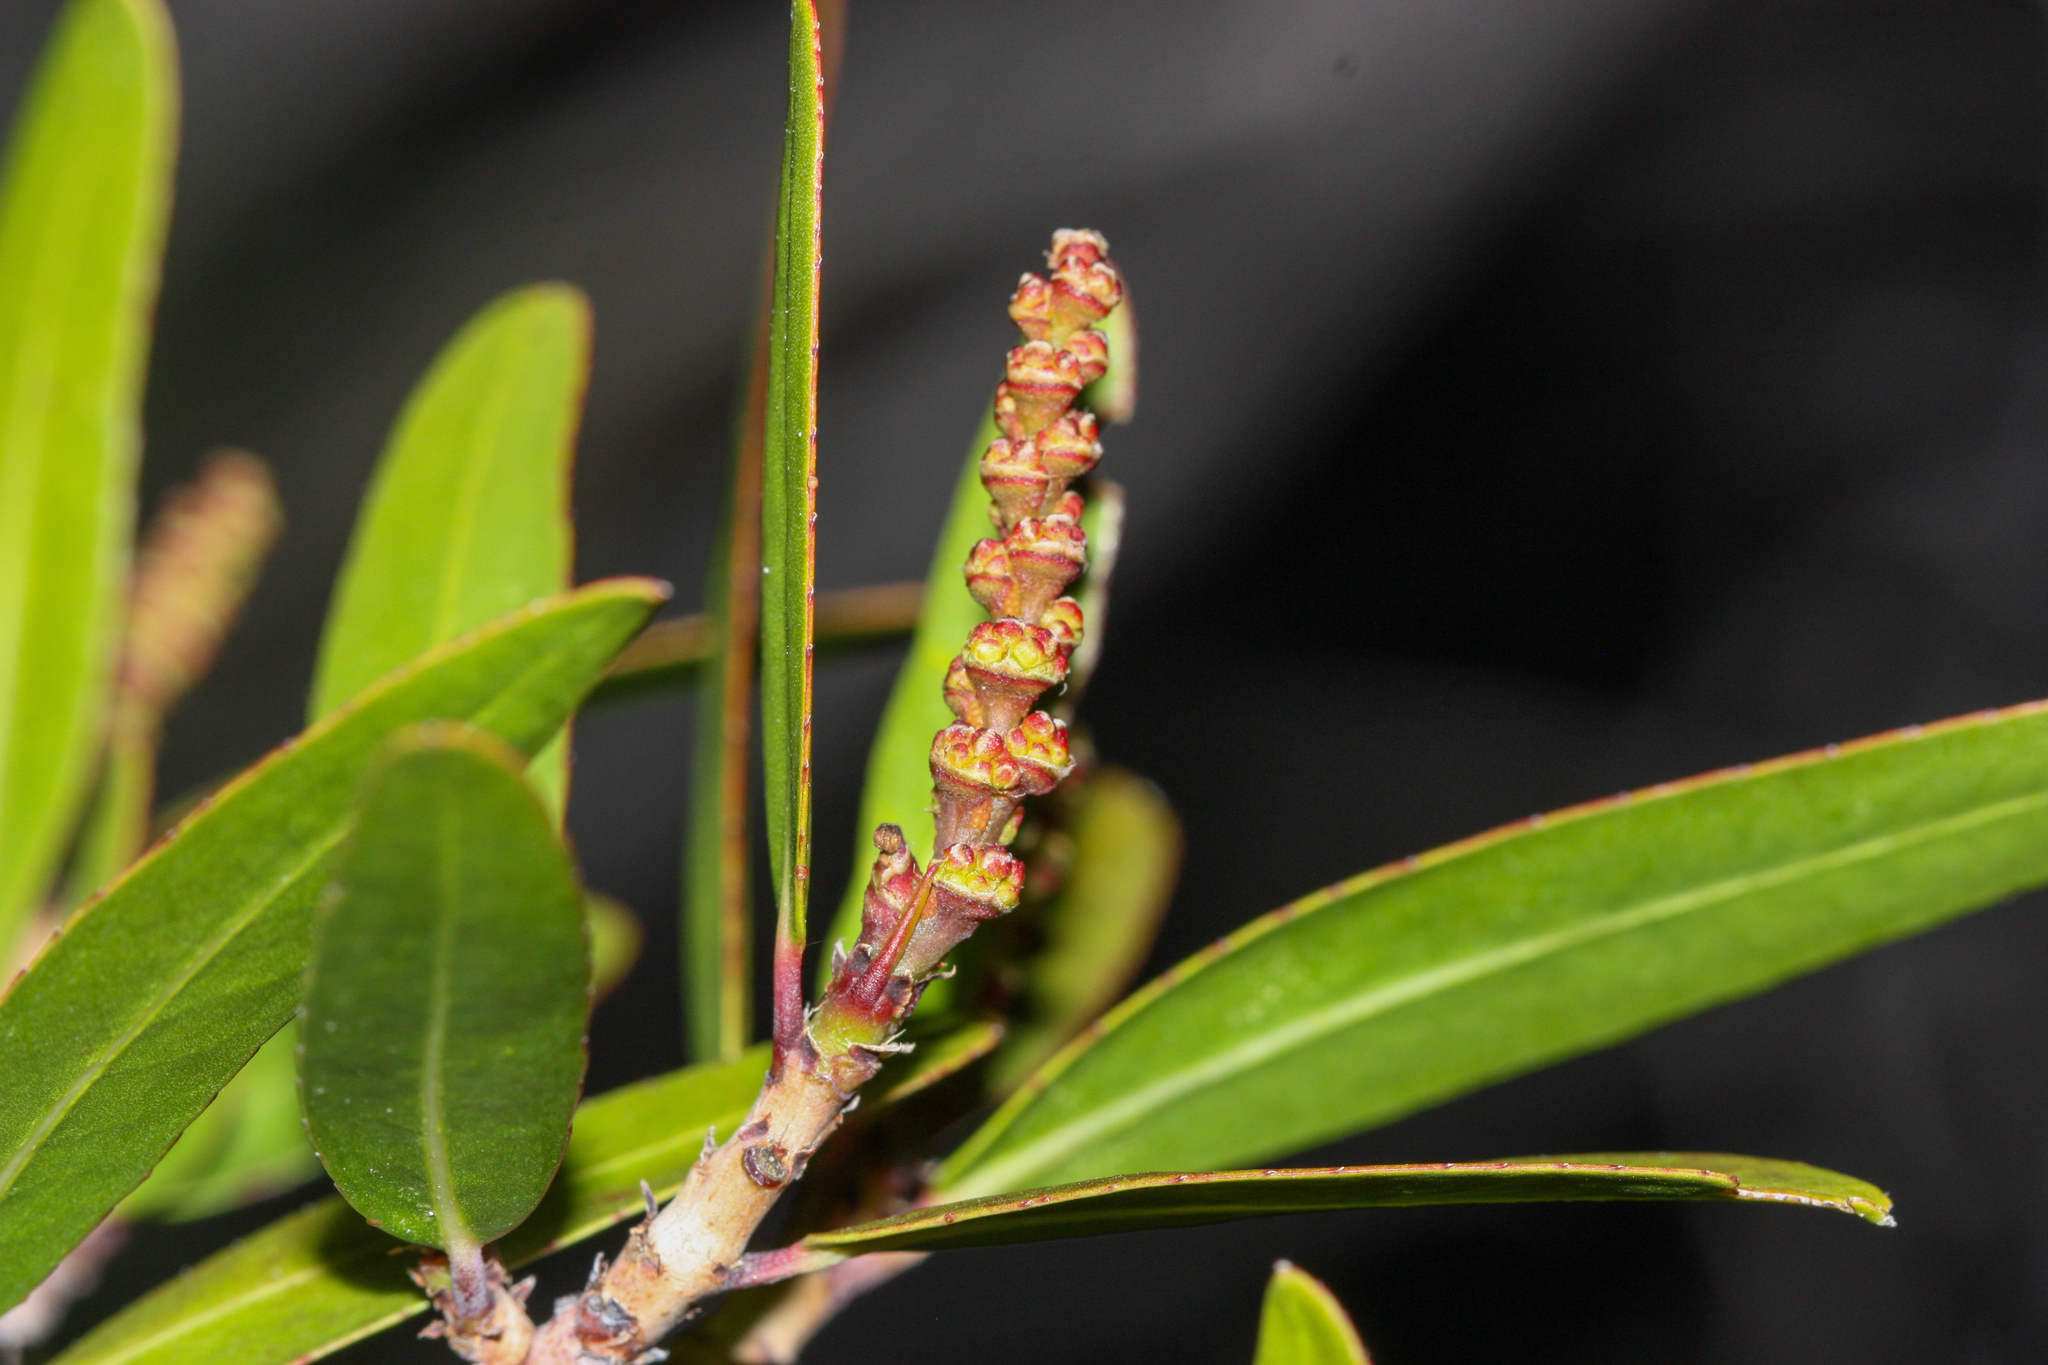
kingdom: Plantae
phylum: Tracheophyta
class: Magnoliopsida
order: Malpighiales
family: Euphorbiaceae
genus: Pleradenophora
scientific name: Pleradenophora bilocularis
